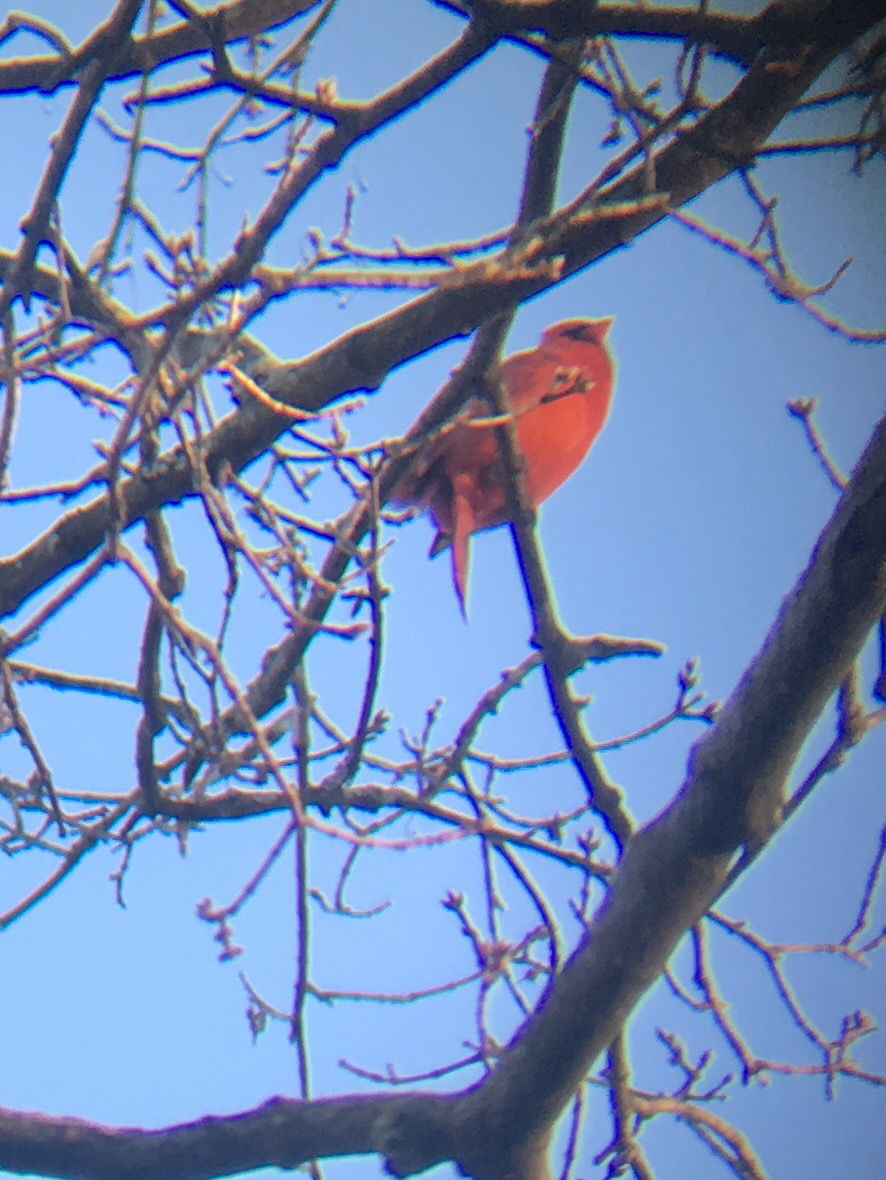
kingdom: Animalia
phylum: Chordata
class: Aves
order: Passeriformes
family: Cardinalidae
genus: Cardinalis
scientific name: Cardinalis cardinalis
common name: Northern cardinal
